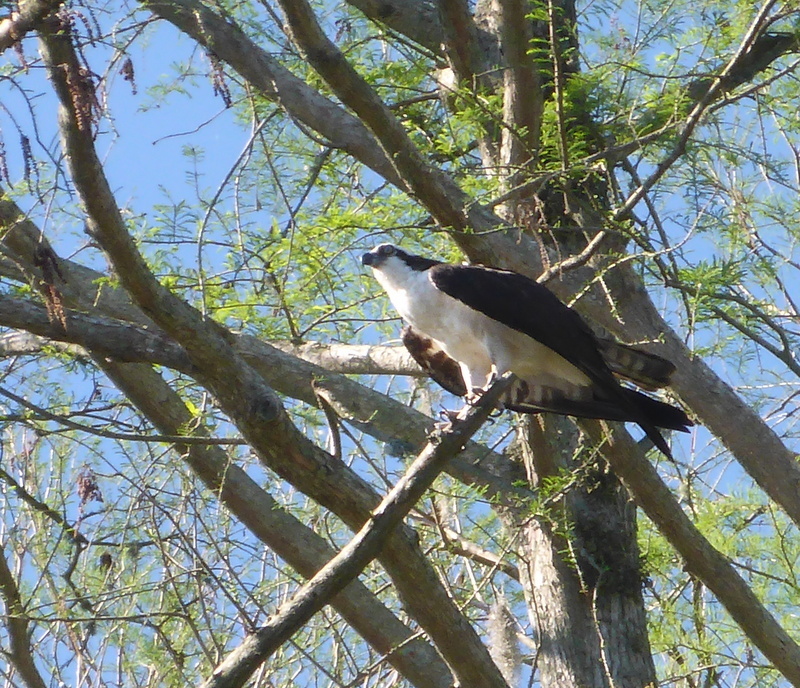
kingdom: Animalia
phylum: Chordata
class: Aves
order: Accipitriformes
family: Pandionidae
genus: Pandion
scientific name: Pandion haliaetus
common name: Osprey
